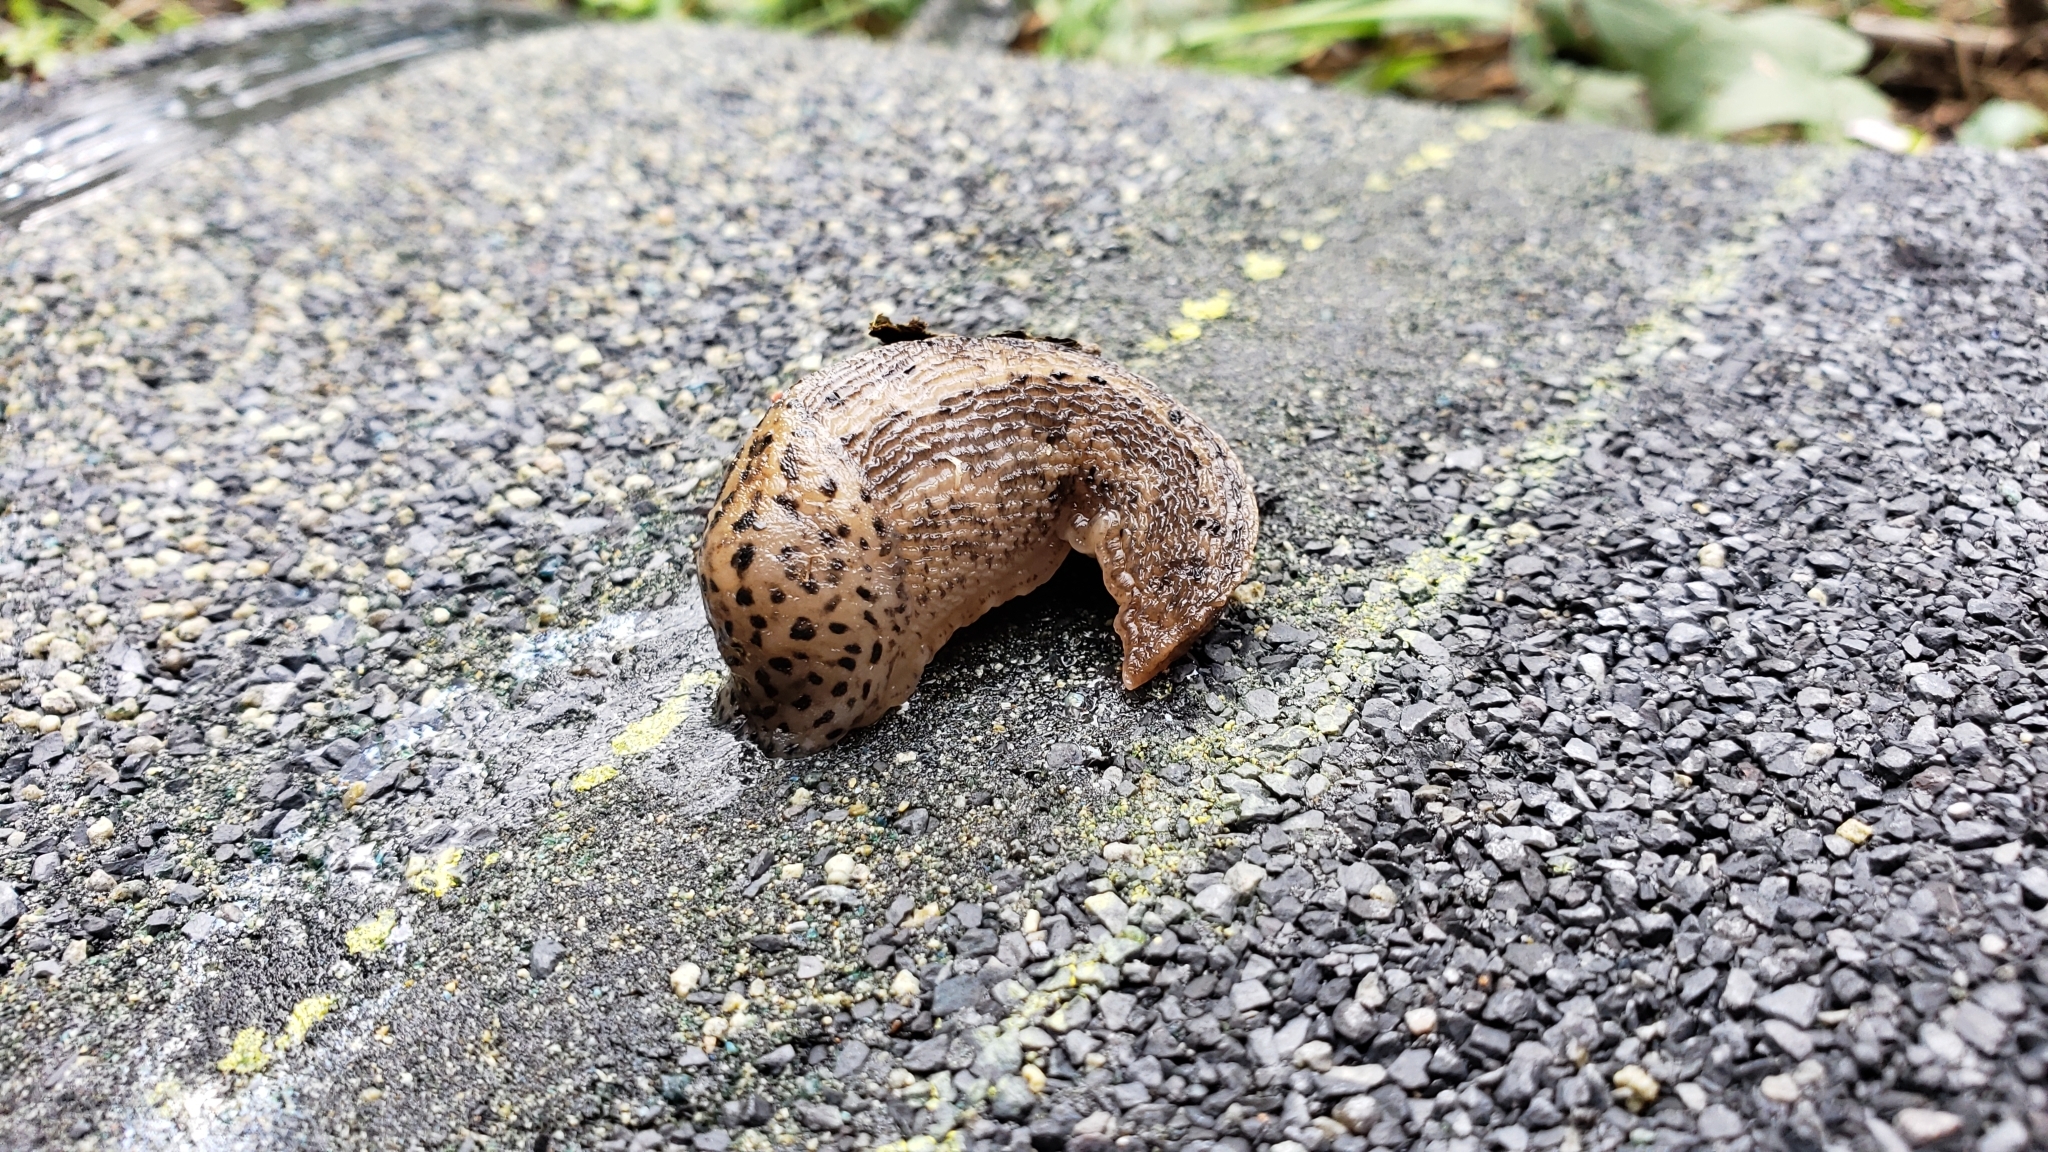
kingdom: Animalia
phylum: Mollusca
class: Gastropoda
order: Stylommatophora
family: Limacidae
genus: Limax
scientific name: Limax maximus
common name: Great grey slug
